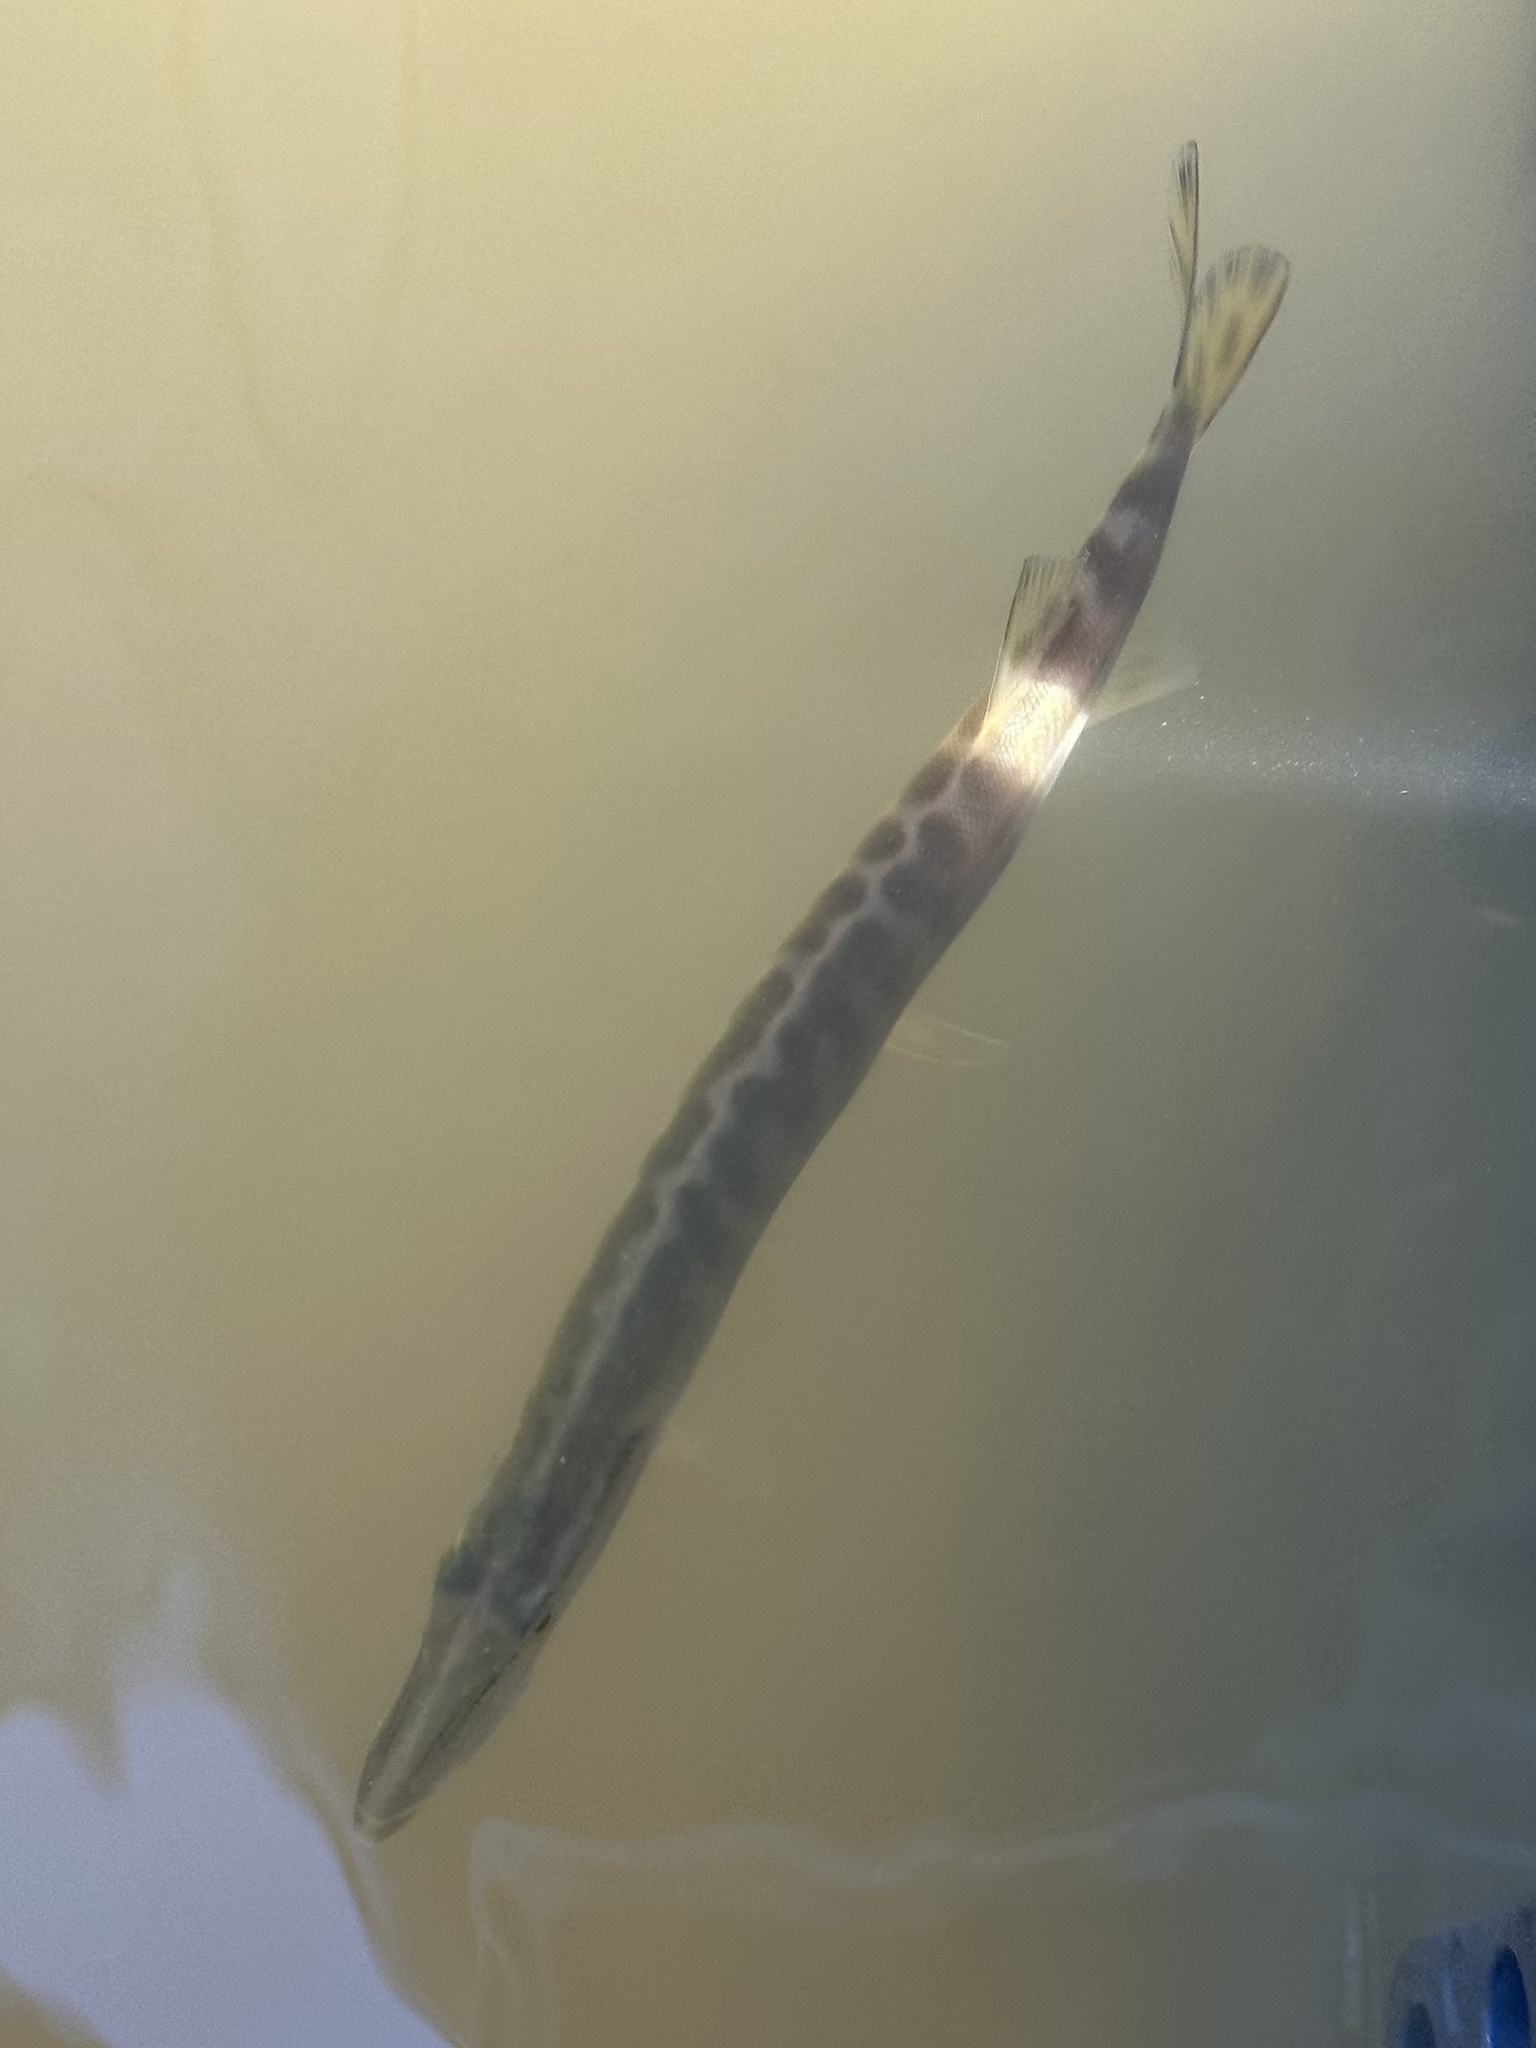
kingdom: Animalia
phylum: Chordata
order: Esociformes
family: Esocidae
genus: Esox
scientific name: Esox masquinongy
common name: Muskellunge
